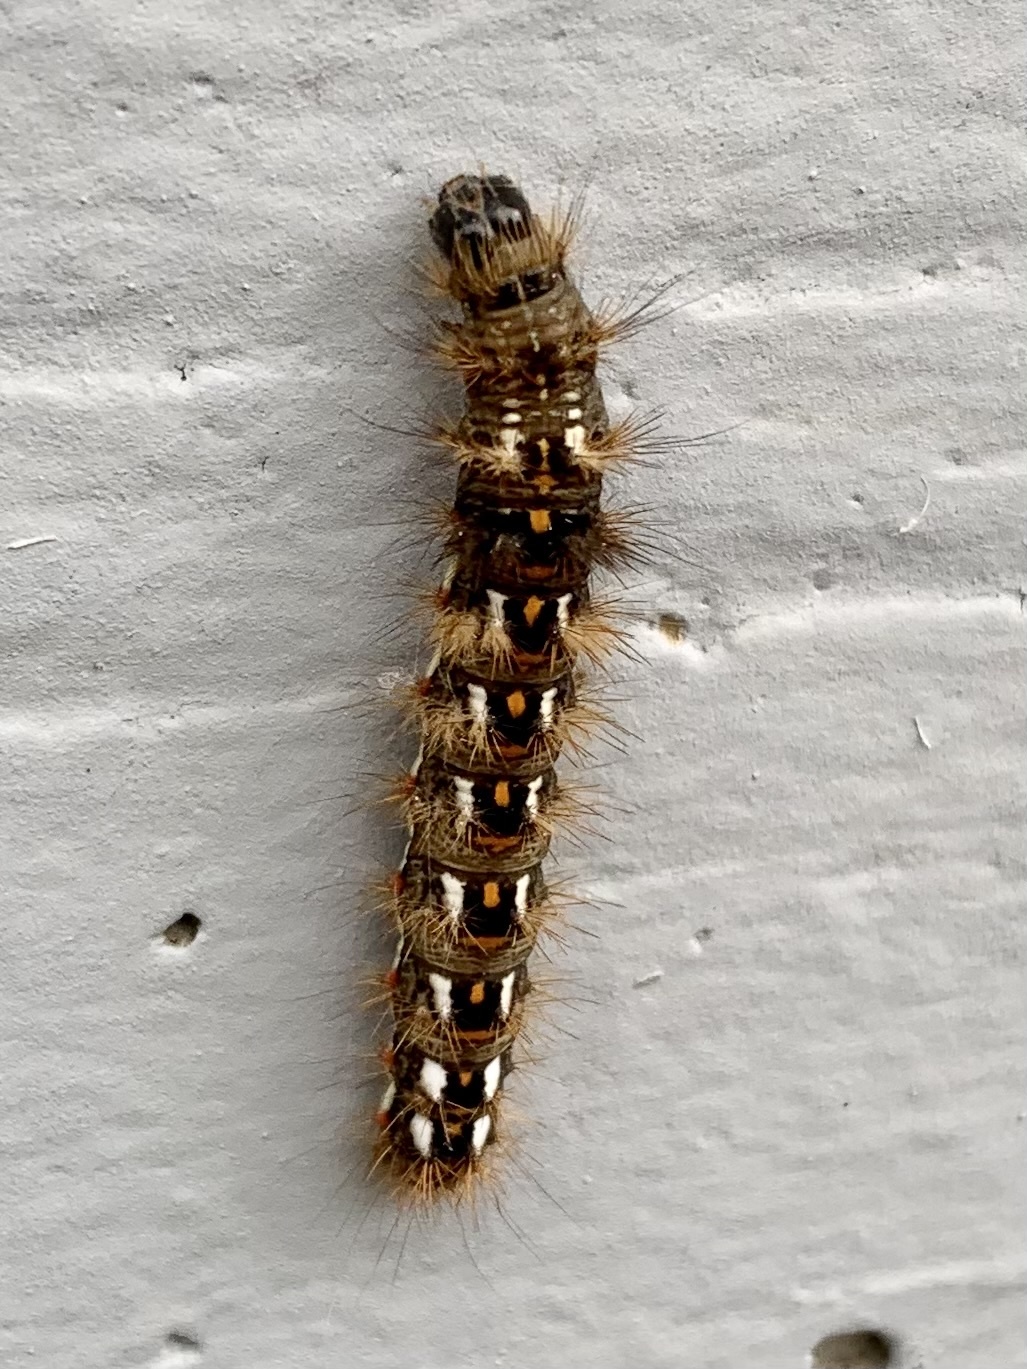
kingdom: Animalia
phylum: Arthropoda
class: Insecta
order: Lepidoptera
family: Noctuidae
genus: Acronicta
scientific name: Acronicta rumicis
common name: Knot grass
